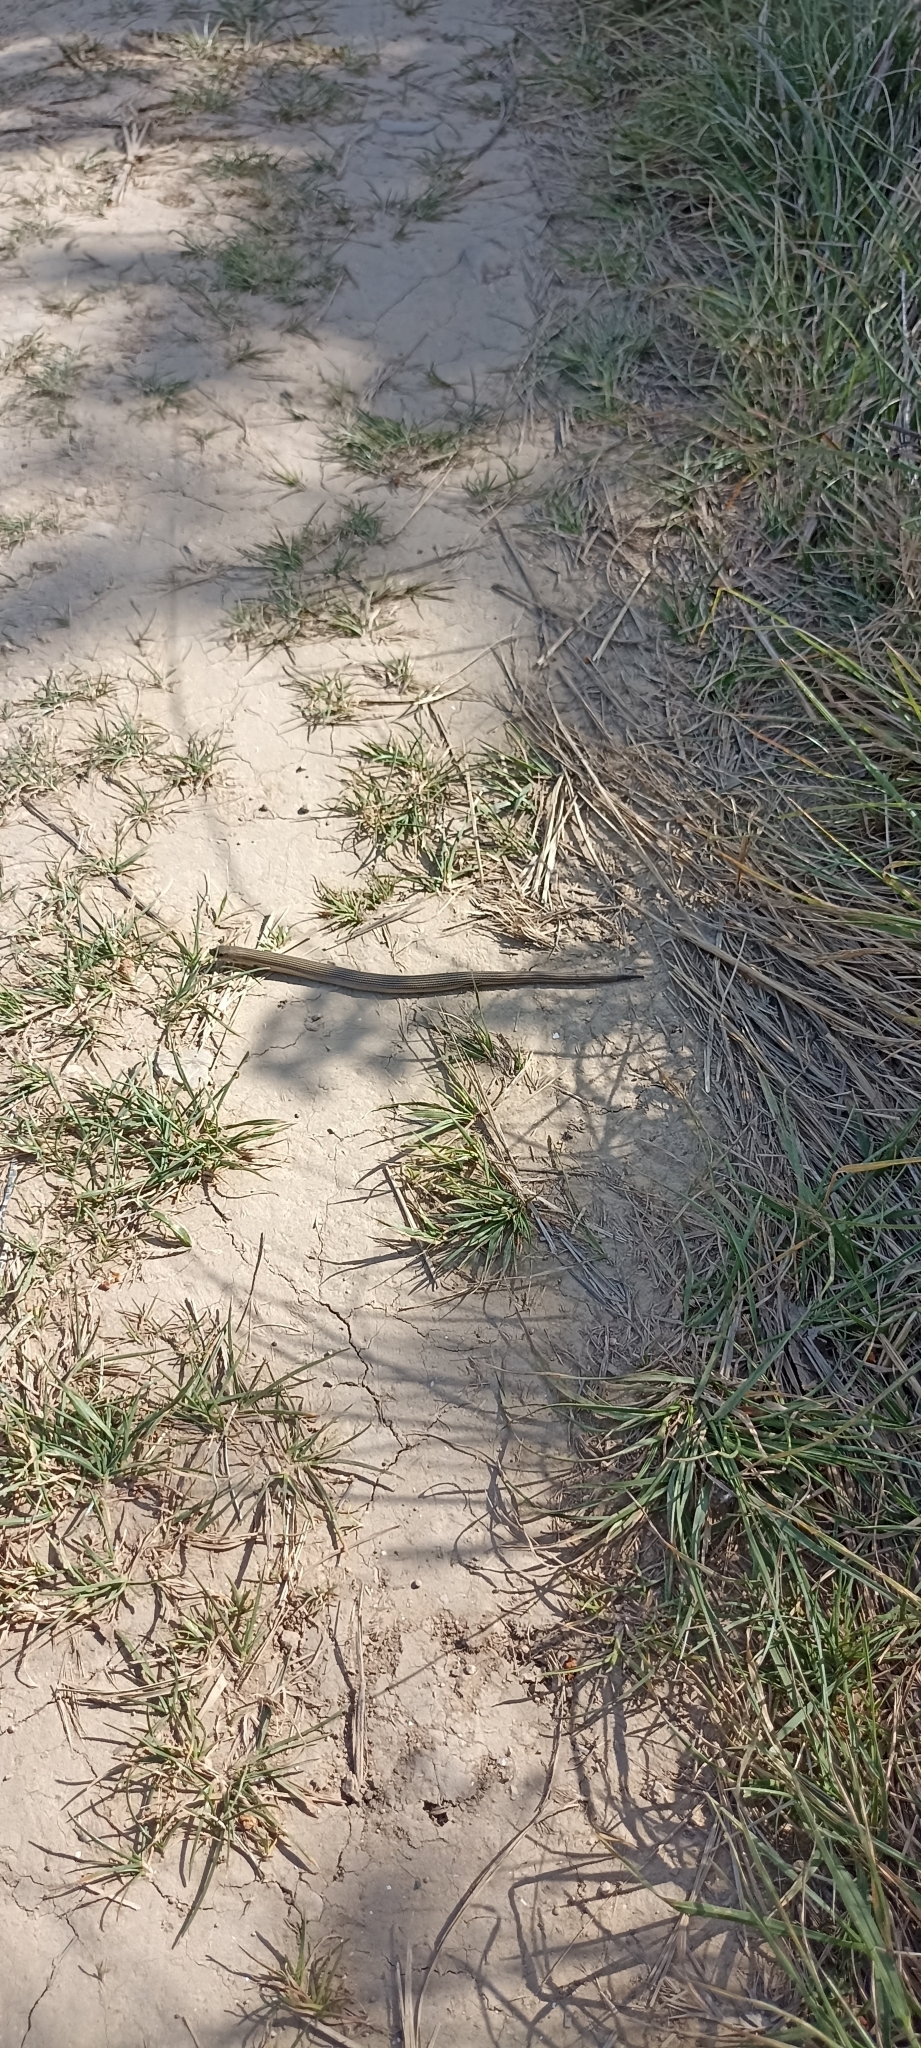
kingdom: Animalia
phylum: Chordata
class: Squamata
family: Scincidae
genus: Chalcides
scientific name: Chalcides striatus
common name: Western (or iberian) three-toed skink
